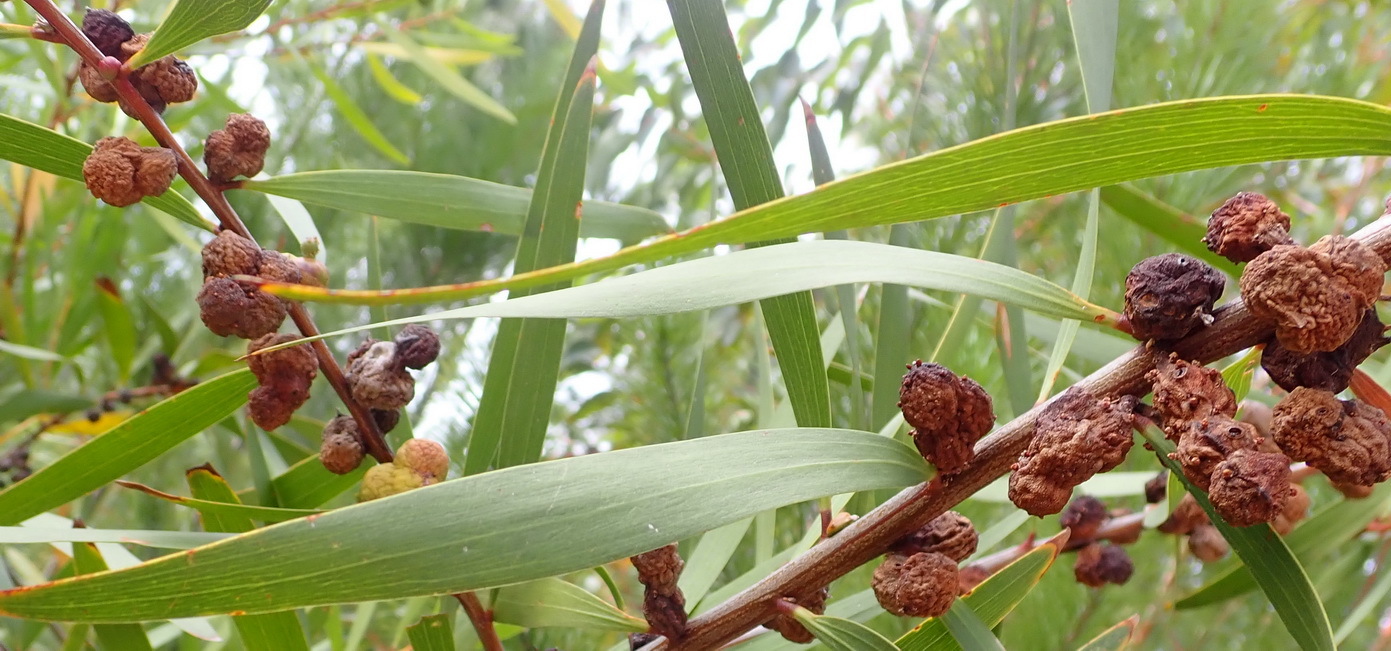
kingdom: Plantae
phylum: Tracheophyta
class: Magnoliopsida
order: Fabales
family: Fabaceae
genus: Acacia
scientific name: Acacia longifolia
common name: Sydney golden wattle
